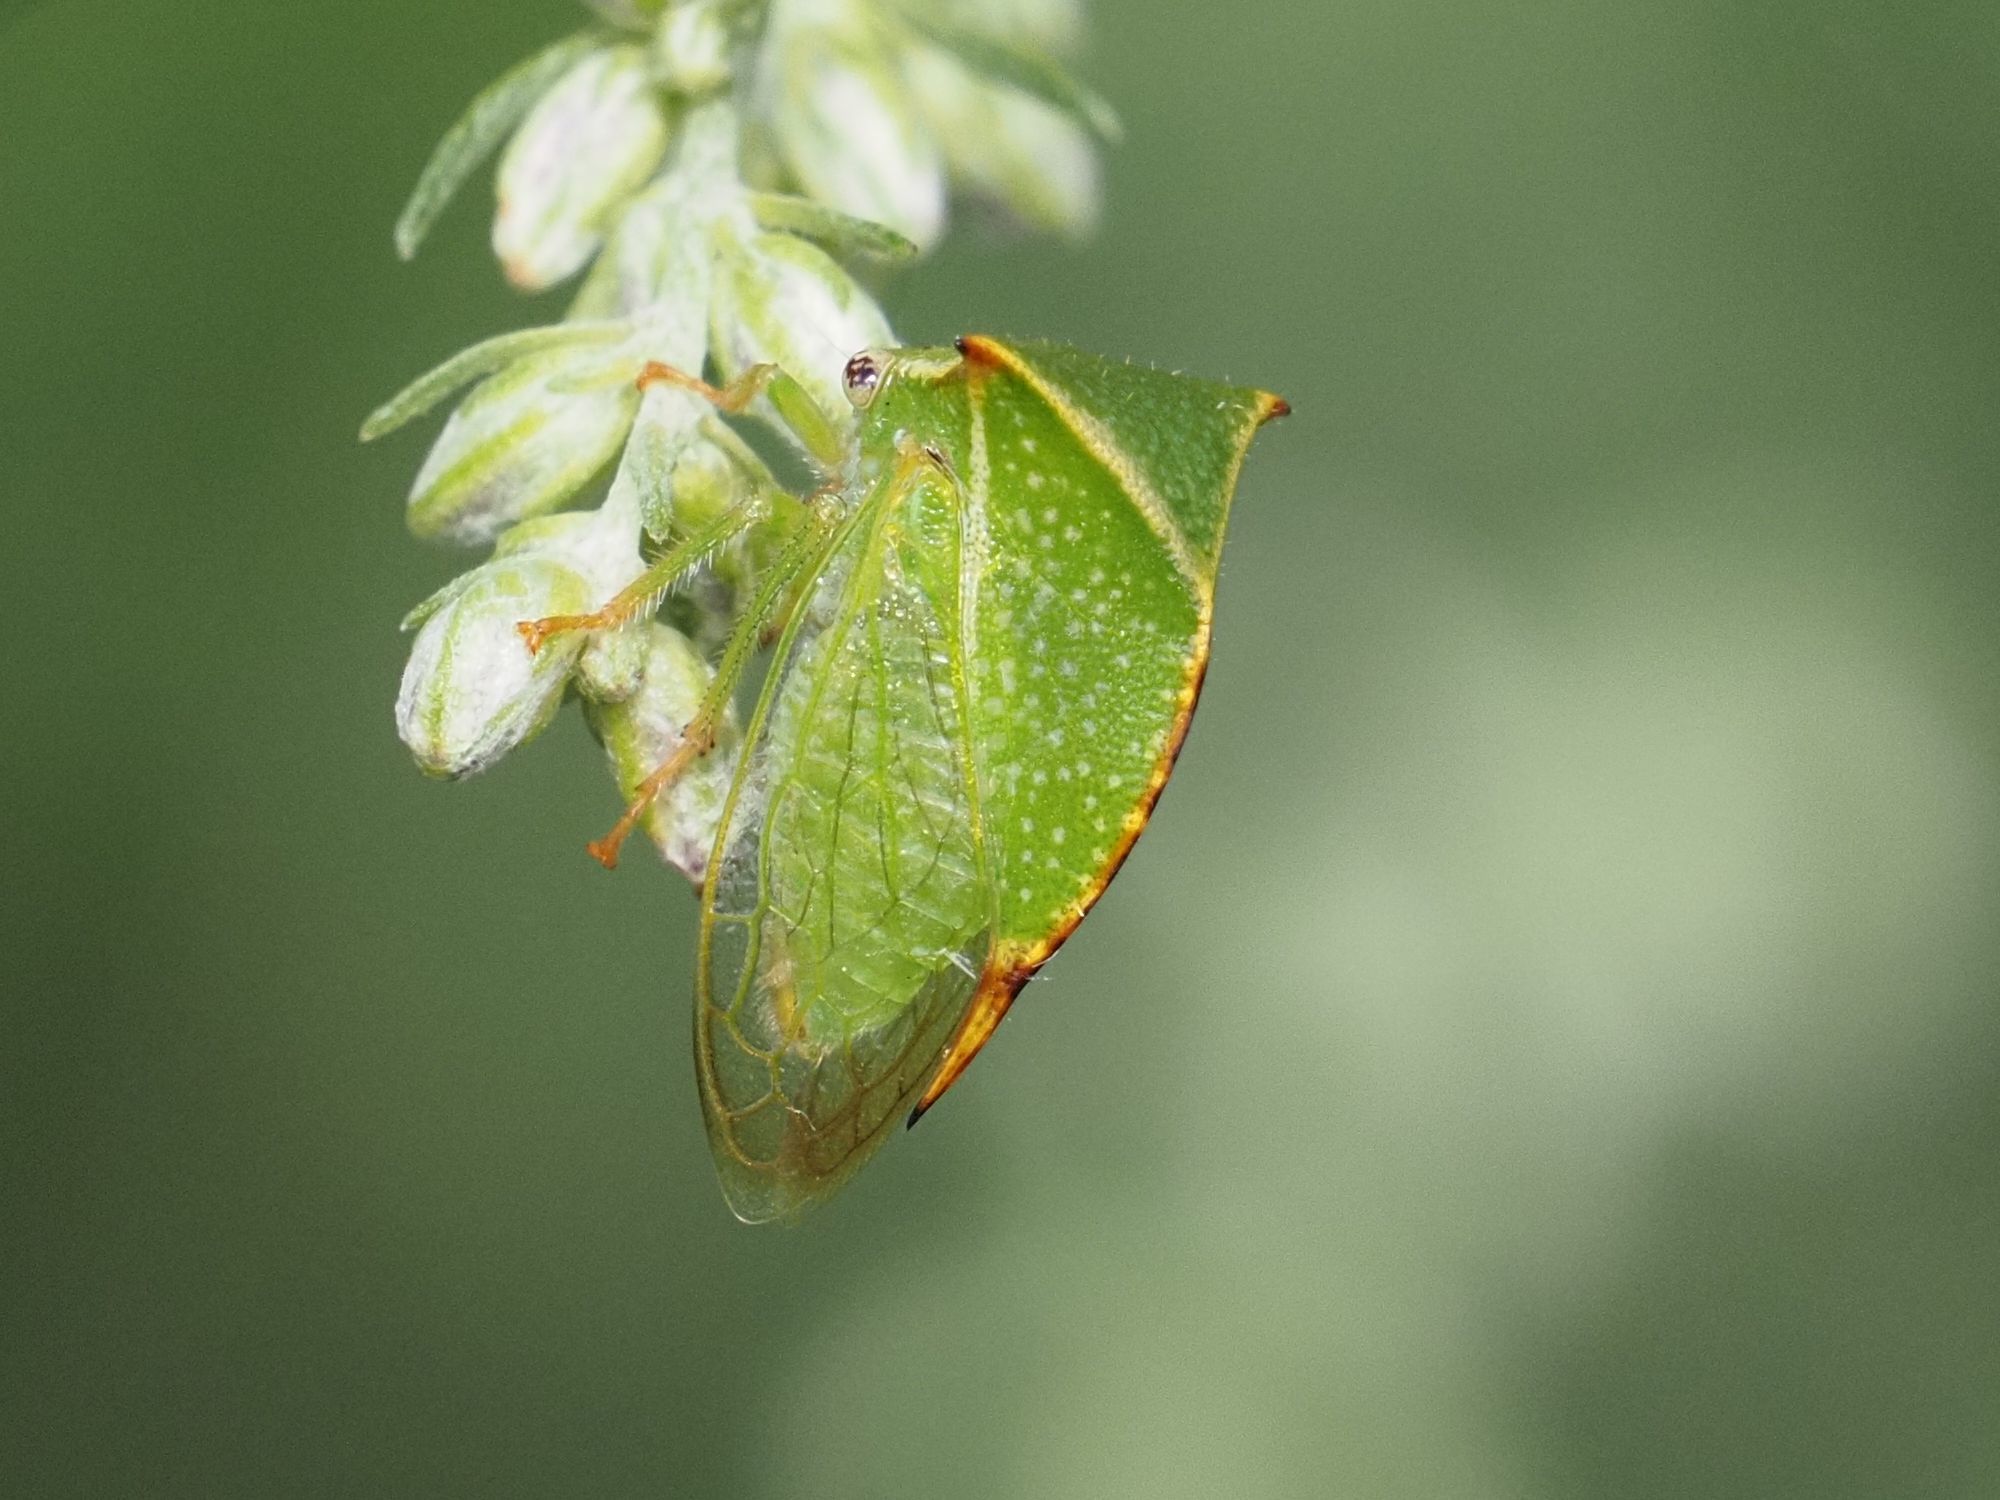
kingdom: Animalia
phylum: Arthropoda
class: Insecta
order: Hemiptera
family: Membracidae
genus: Stictocephala
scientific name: Stictocephala bisonia
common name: American buffalo treehopper
